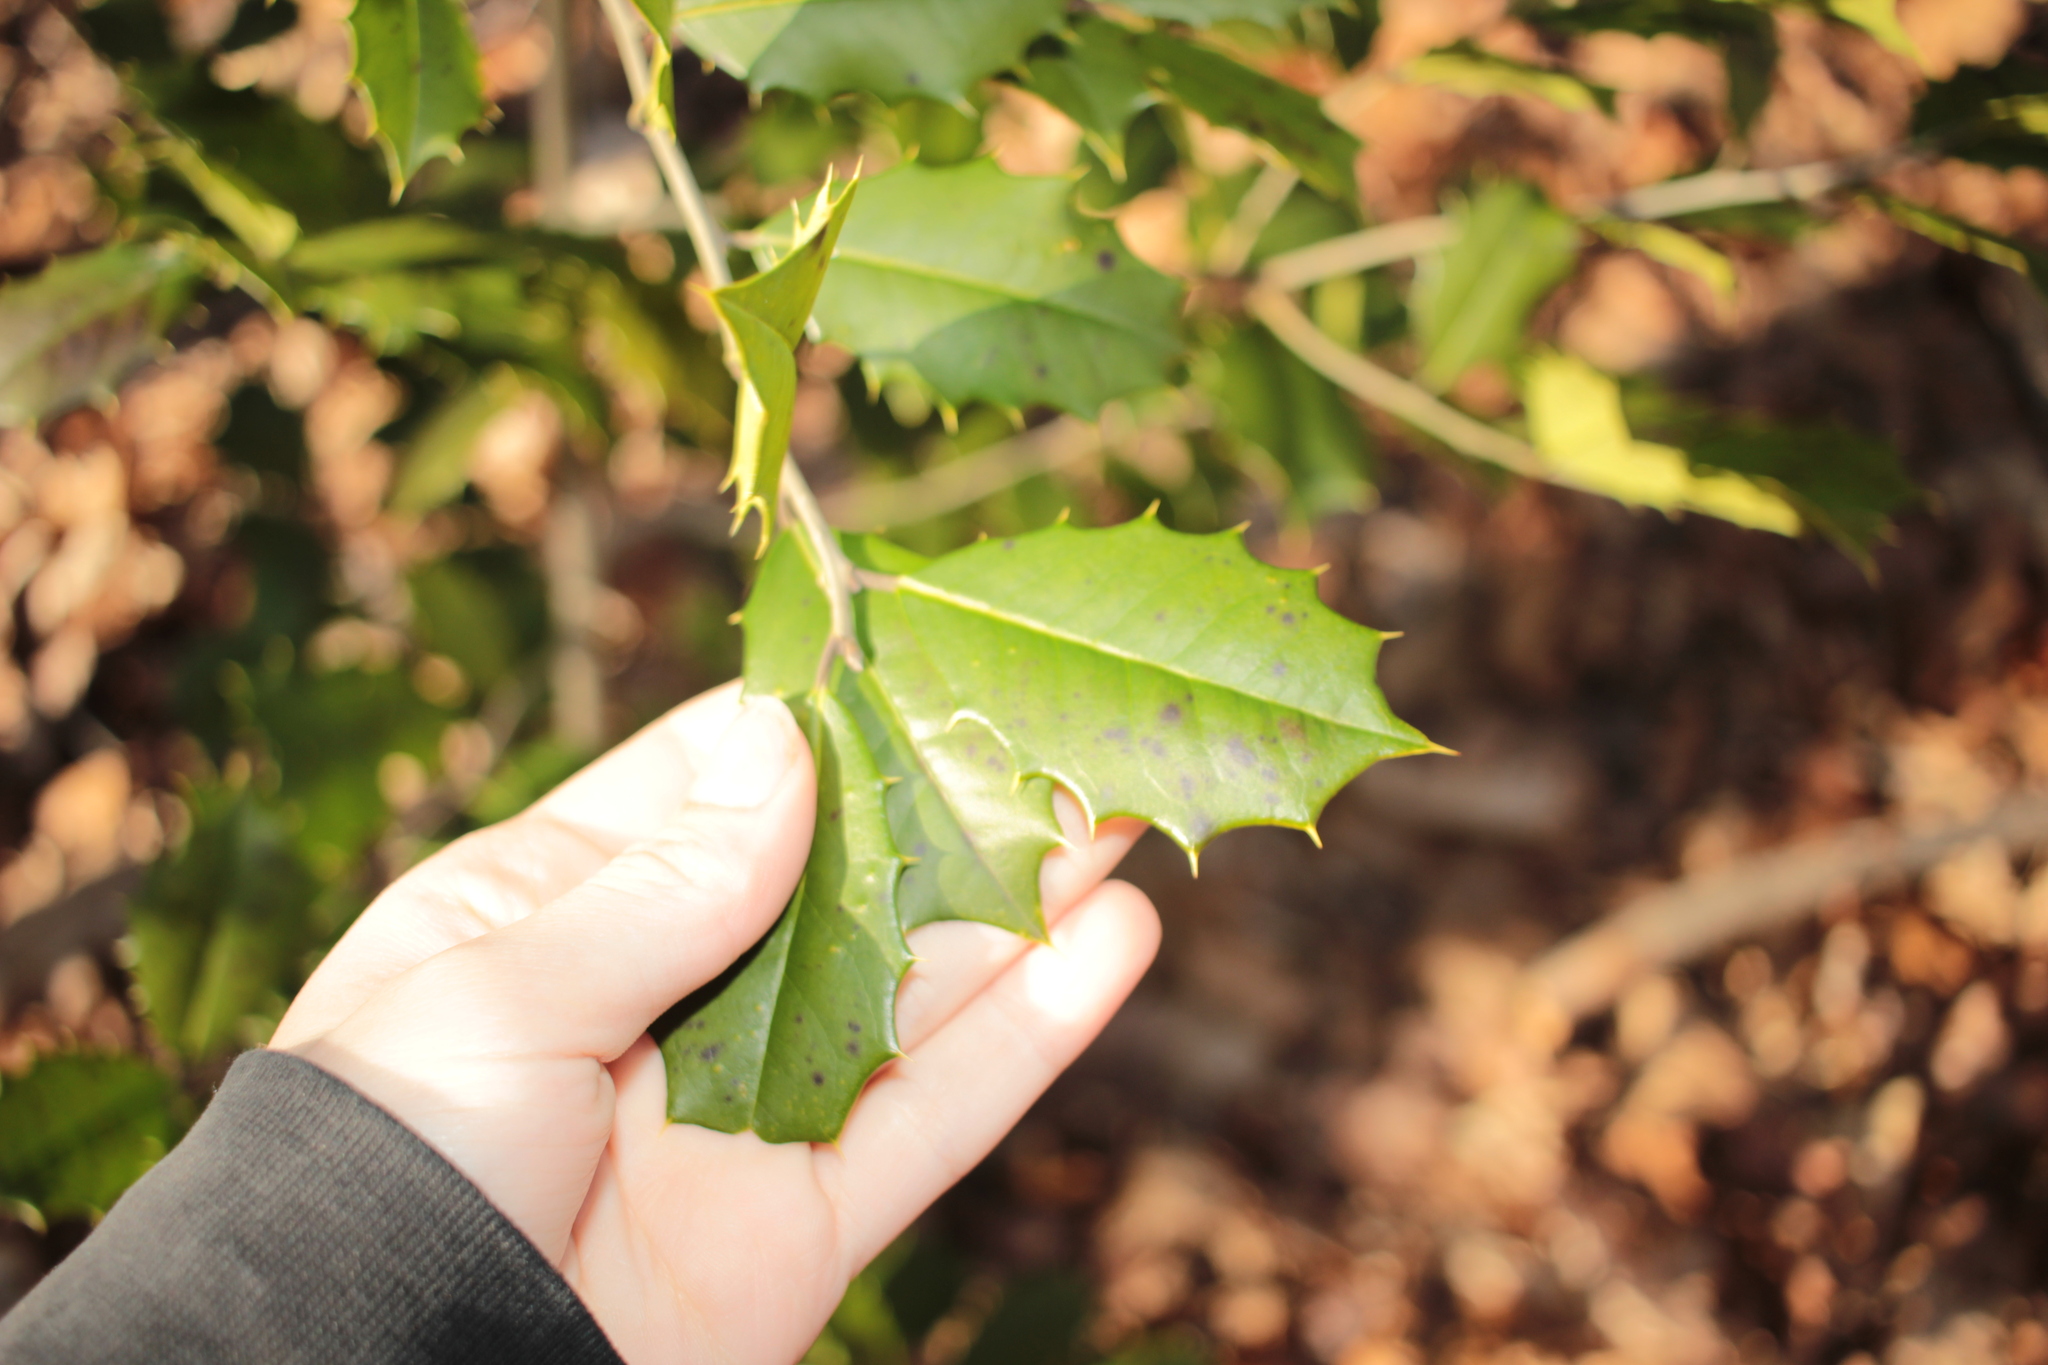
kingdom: Plantae
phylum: Tracheophyta
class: Magnoliopsida
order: Aquifoliales
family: Aquifoliaceae
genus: Ilex
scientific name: Ilex opaca
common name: American holly
